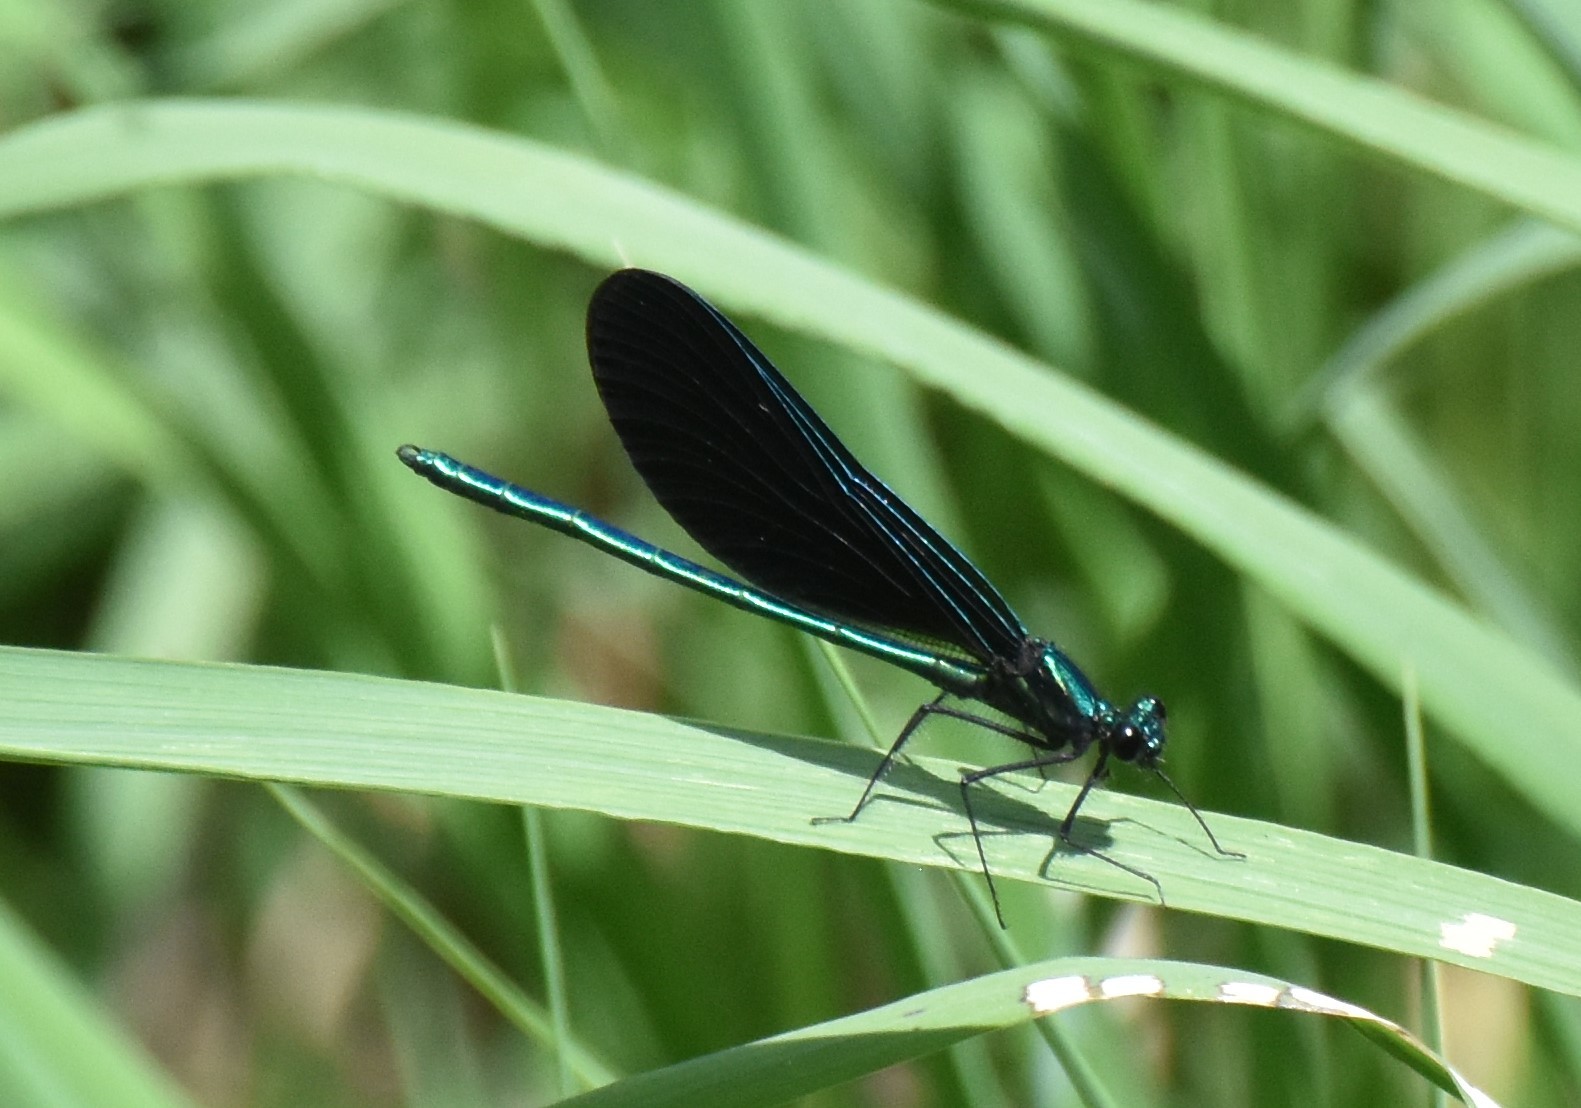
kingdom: Animalia
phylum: Arthropoda
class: Insecta
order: Odonata
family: Calopterygidae
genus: Calopteryx
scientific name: Calopteryx maculata
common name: Ebony jewelwing
